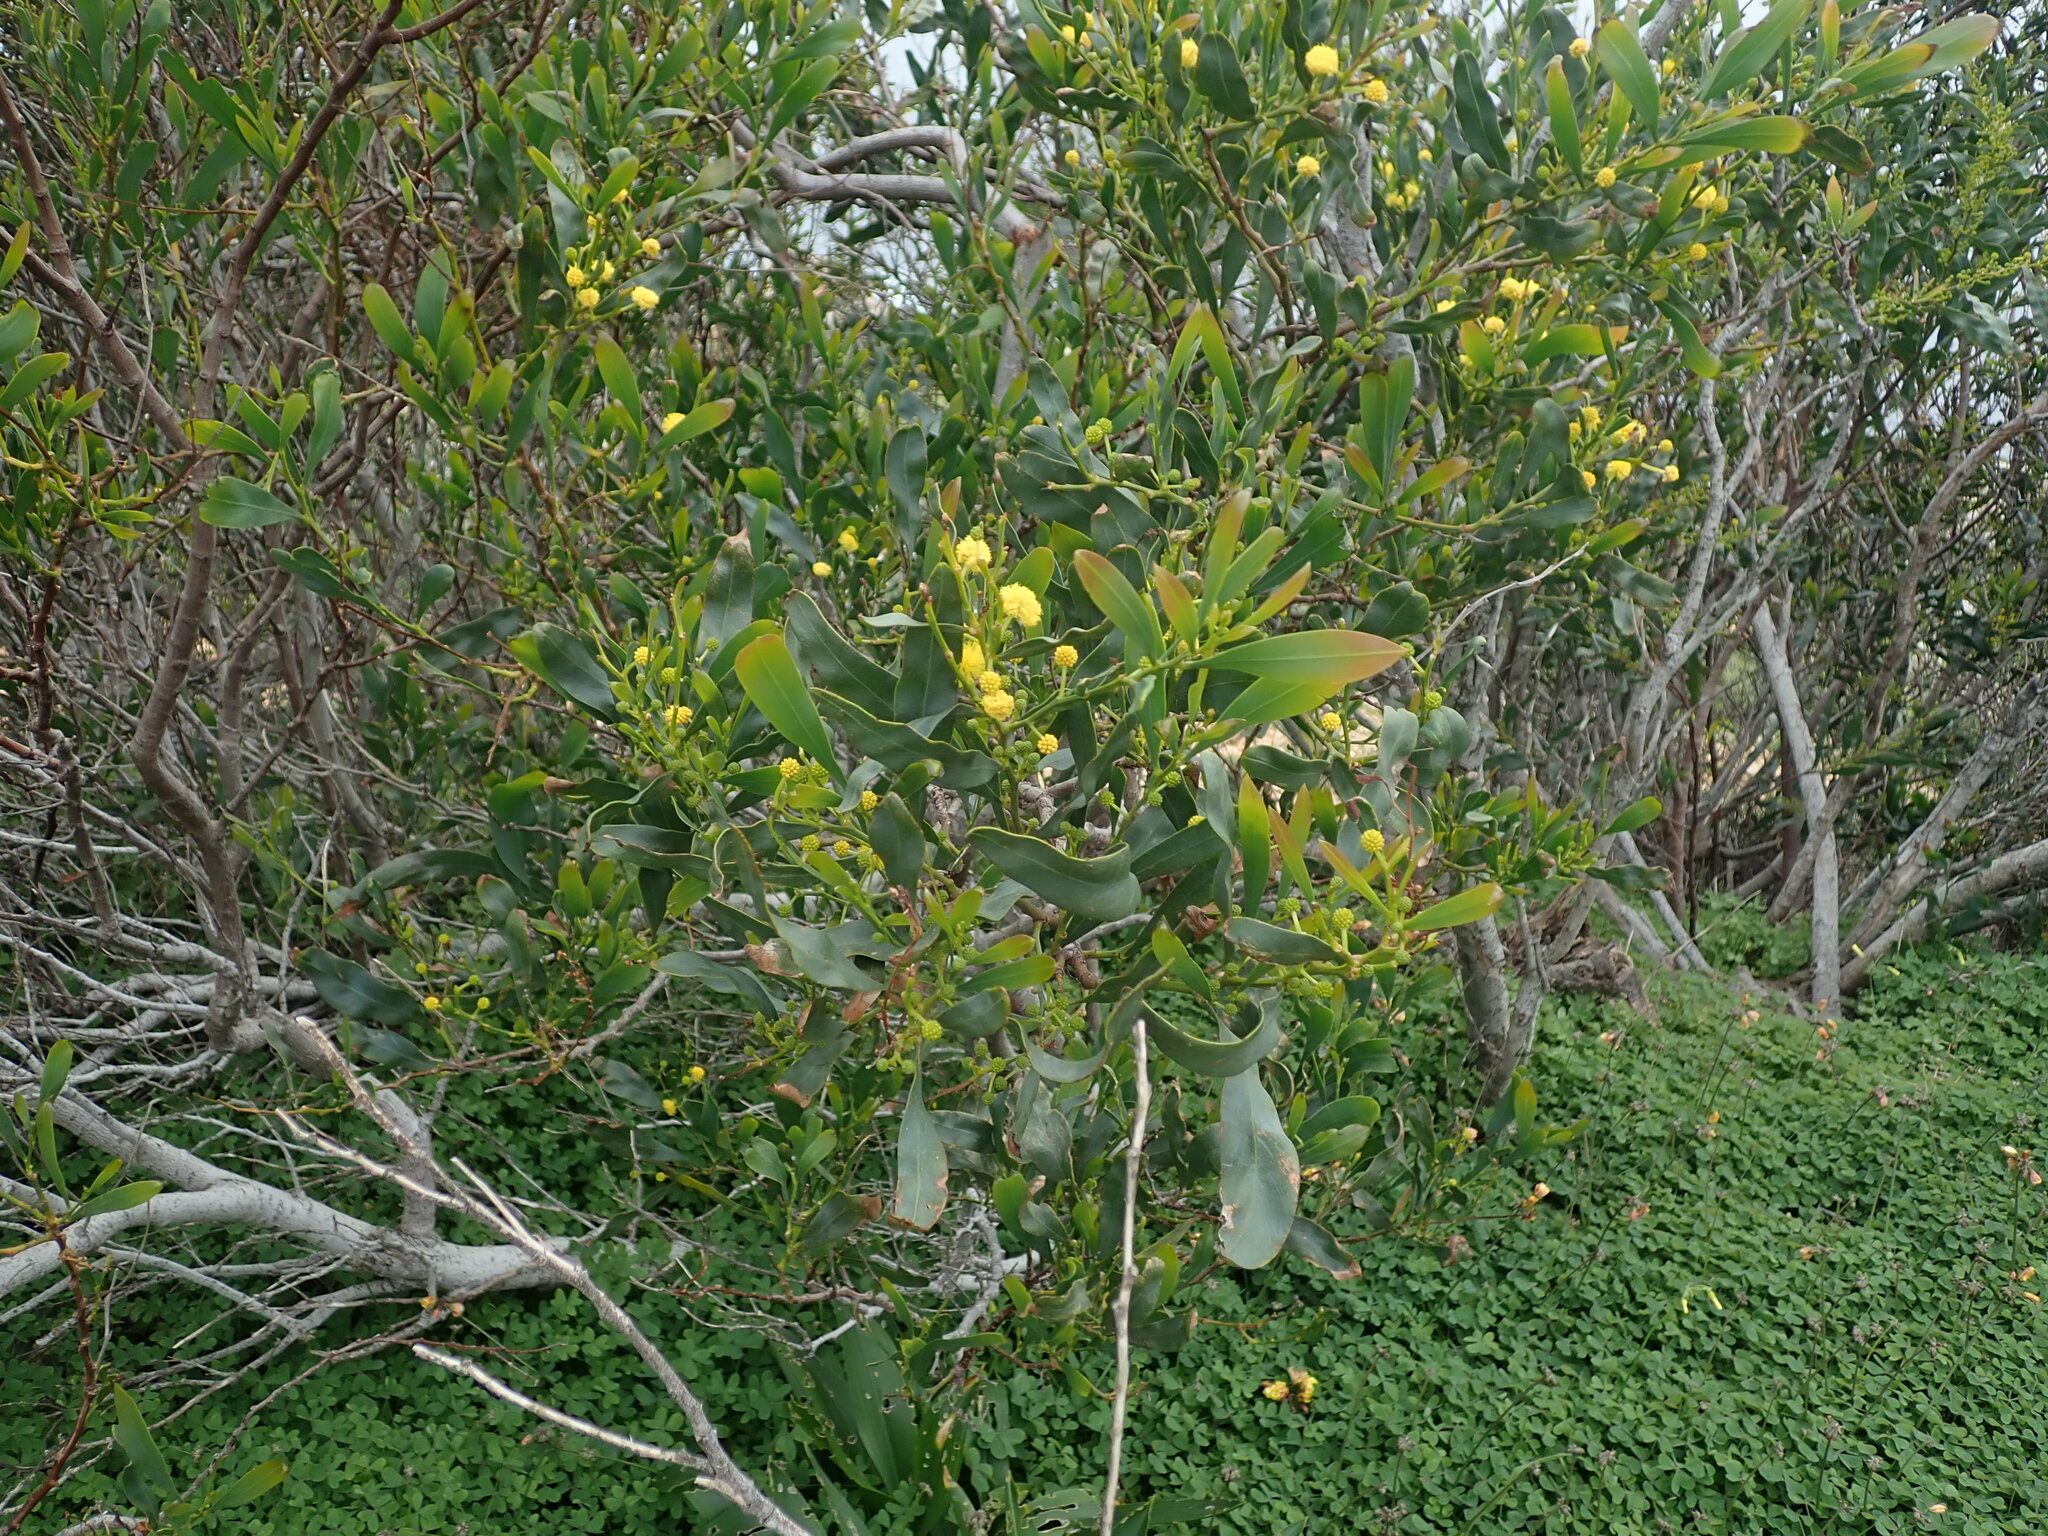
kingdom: Plantae
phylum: Tracheophyta
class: Magnoliopsida
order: Fabales
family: Fabaceae
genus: Acacia
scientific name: Acacia saligna
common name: Orange wattle
